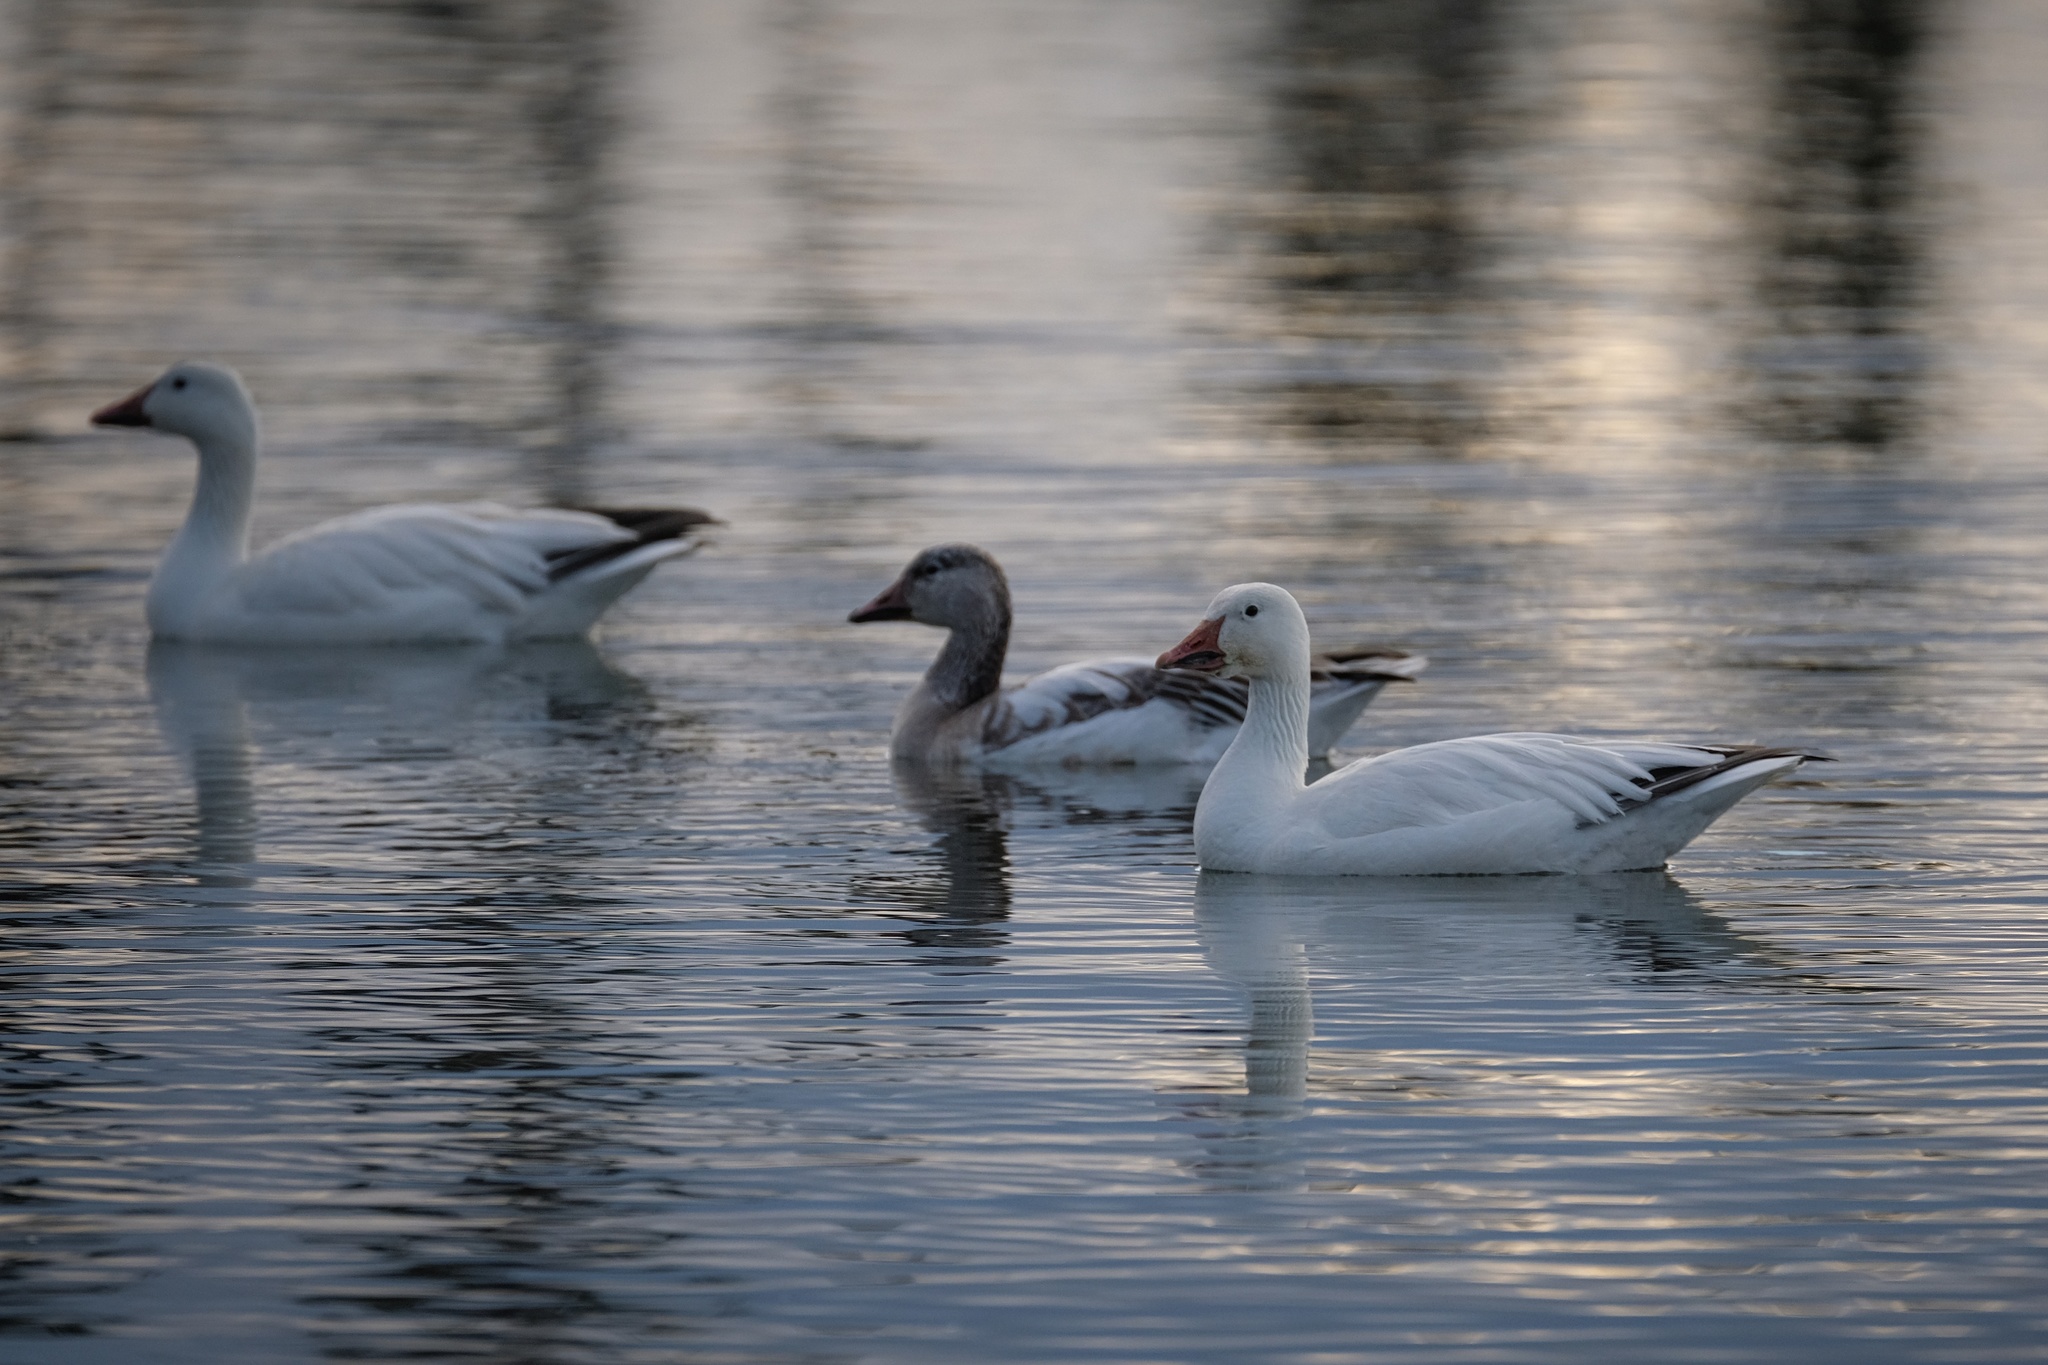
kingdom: Animalia
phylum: Chordata
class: Aves
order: Anseriformes
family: Anatidae
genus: Anser
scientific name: Anser caerulescens
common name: Snow goose
